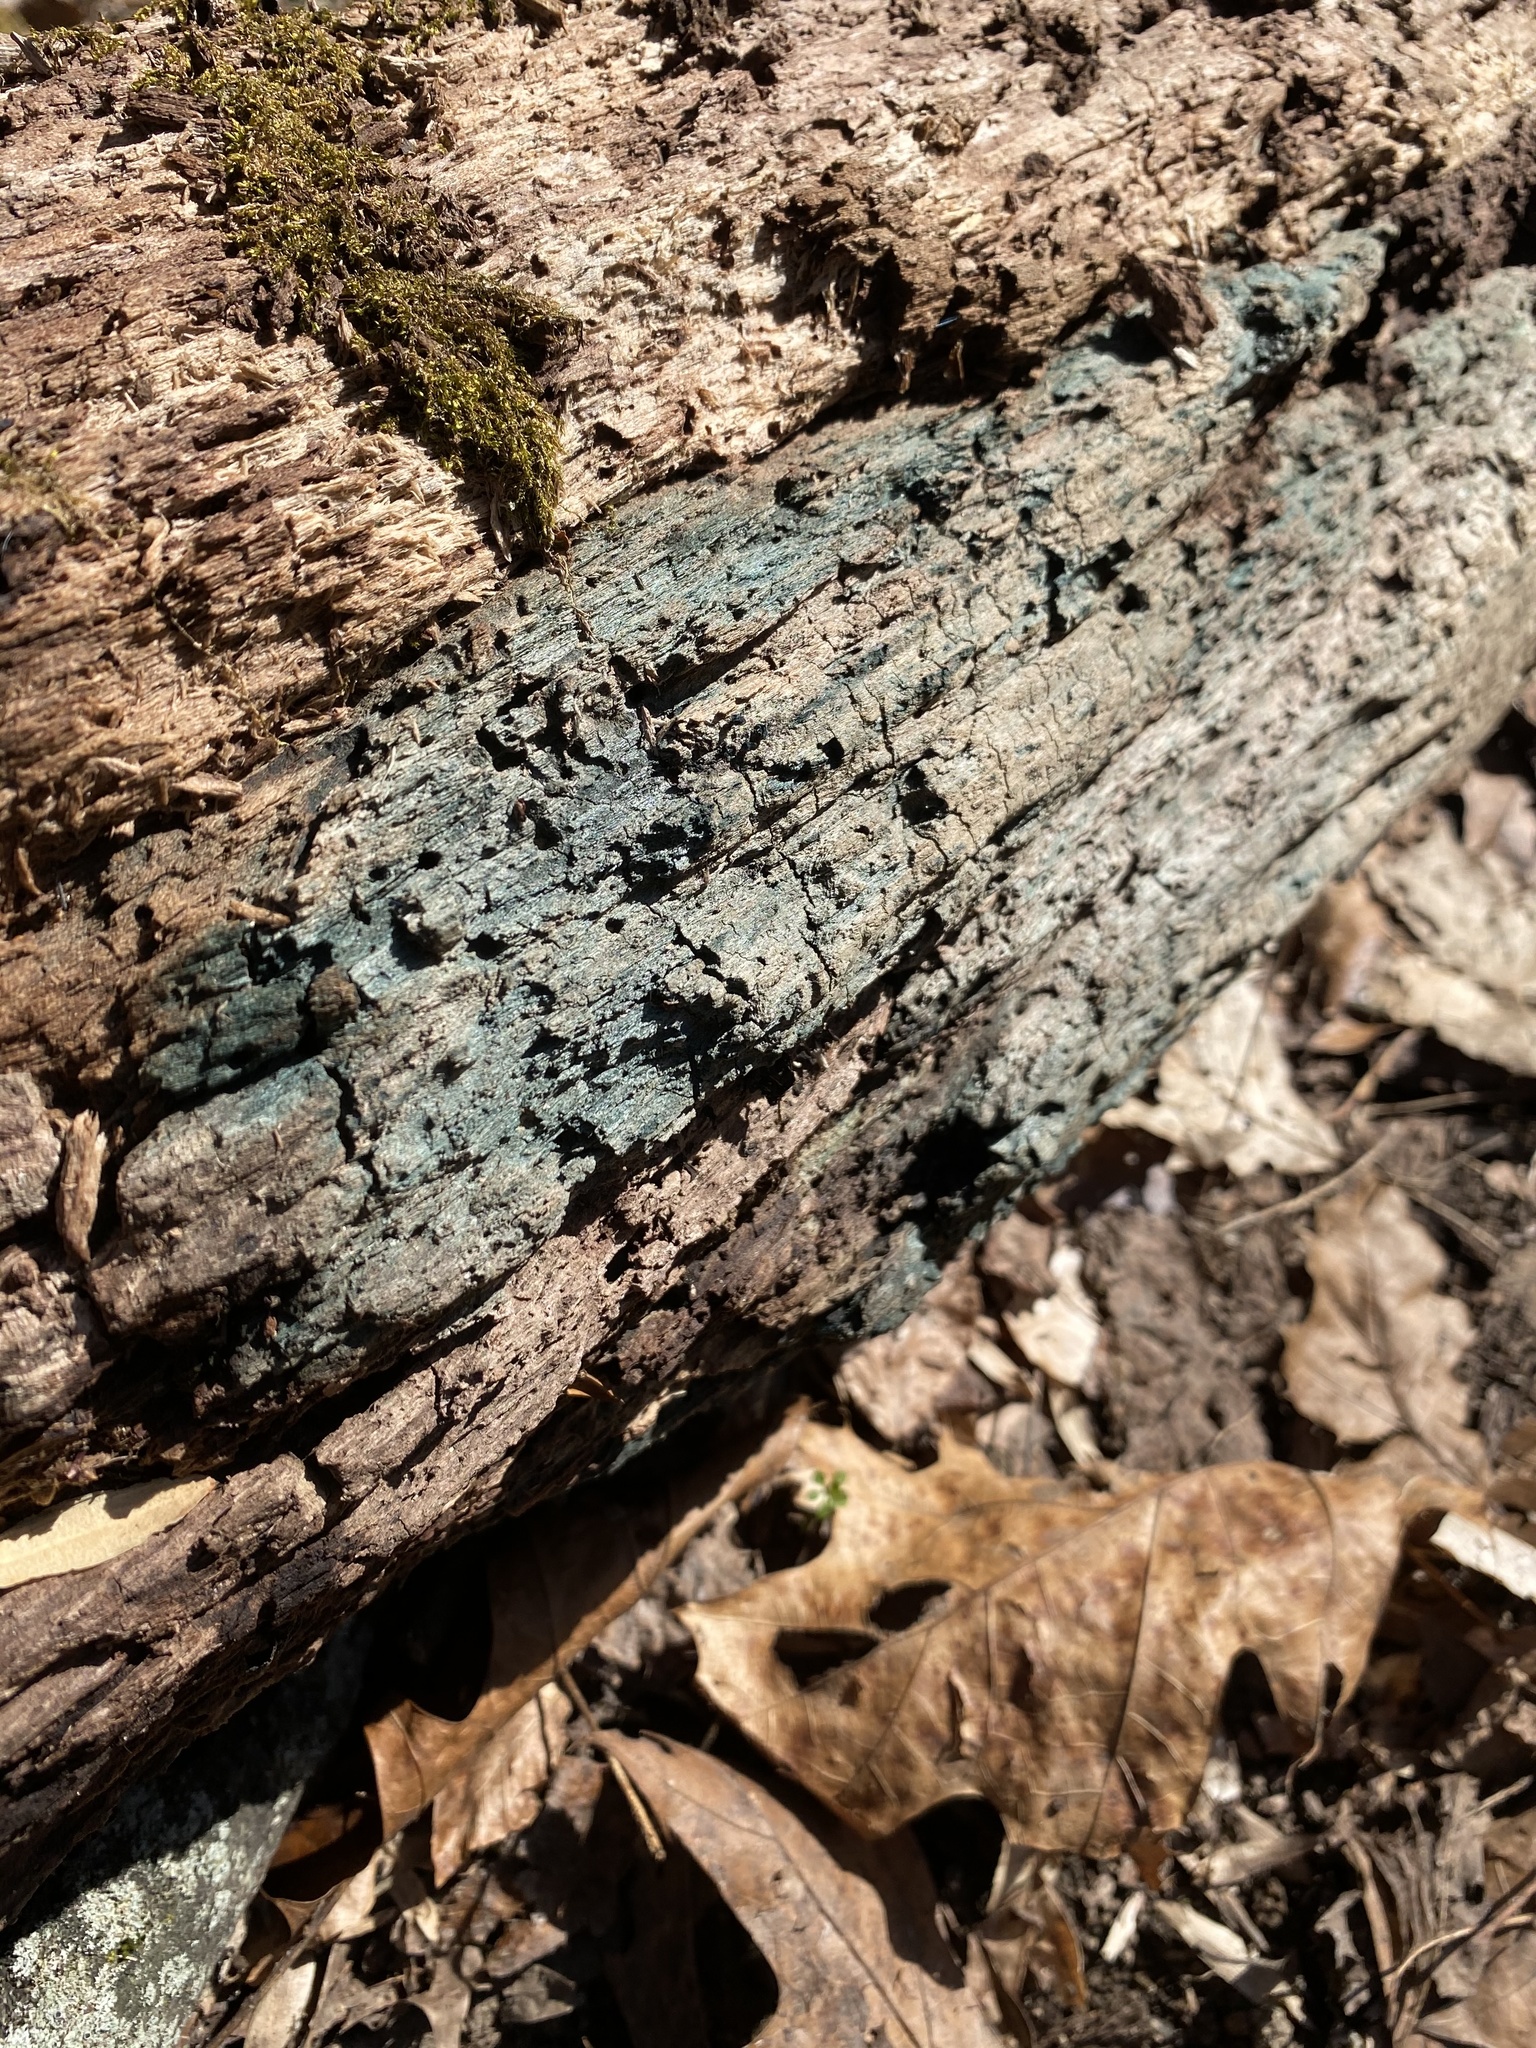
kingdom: Fungi
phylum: Ascomycota
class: Leotiomycetes
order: Helotiales
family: Chlorociboriaceae
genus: Chlorociboria
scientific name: Chlorociboria
